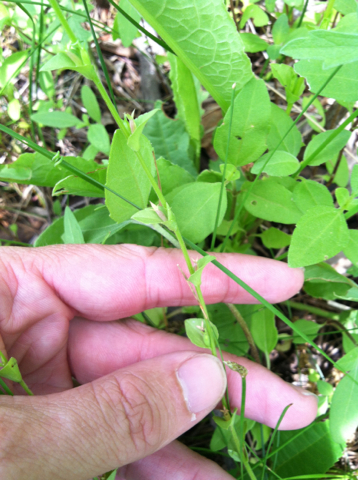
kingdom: Plantae
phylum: Tracheophyta
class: Magnoliopsida
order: Asterales
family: Campanulaceae
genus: Triodanis
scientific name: Triodanis perfoliata
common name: Clasping venus' looking-glass
